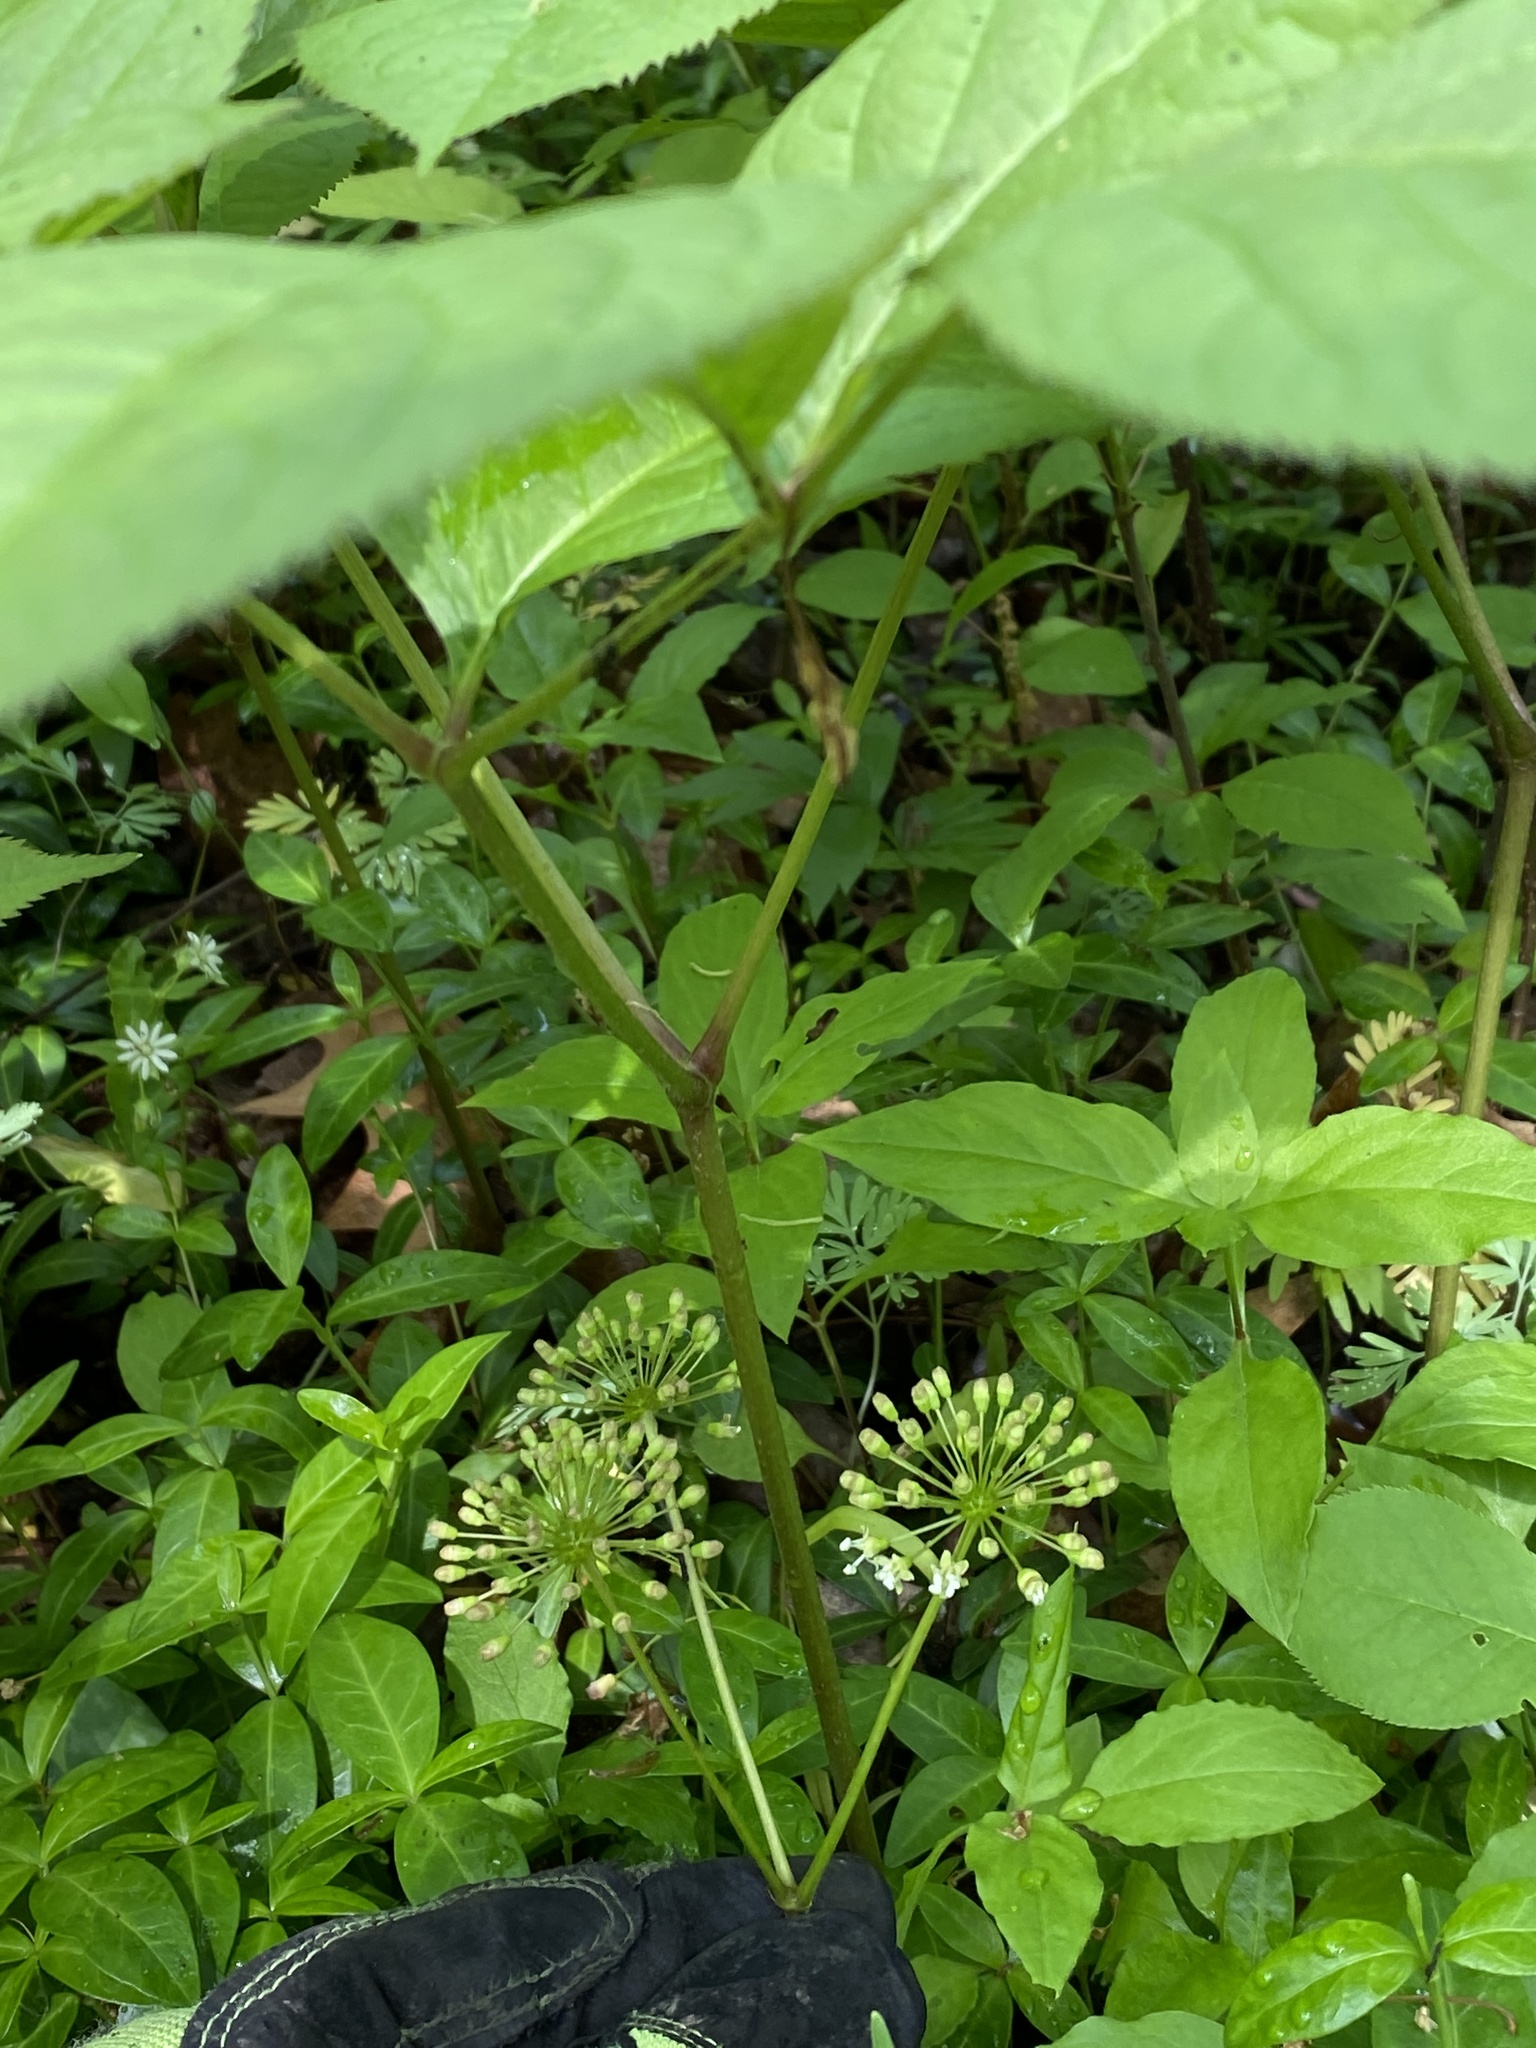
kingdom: Plantae
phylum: Tracheophyta
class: Magnoliopsida
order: Apiales
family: Araliaceae
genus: Aralia
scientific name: Aralia nudicaulis
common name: Wild sarsaparilla
